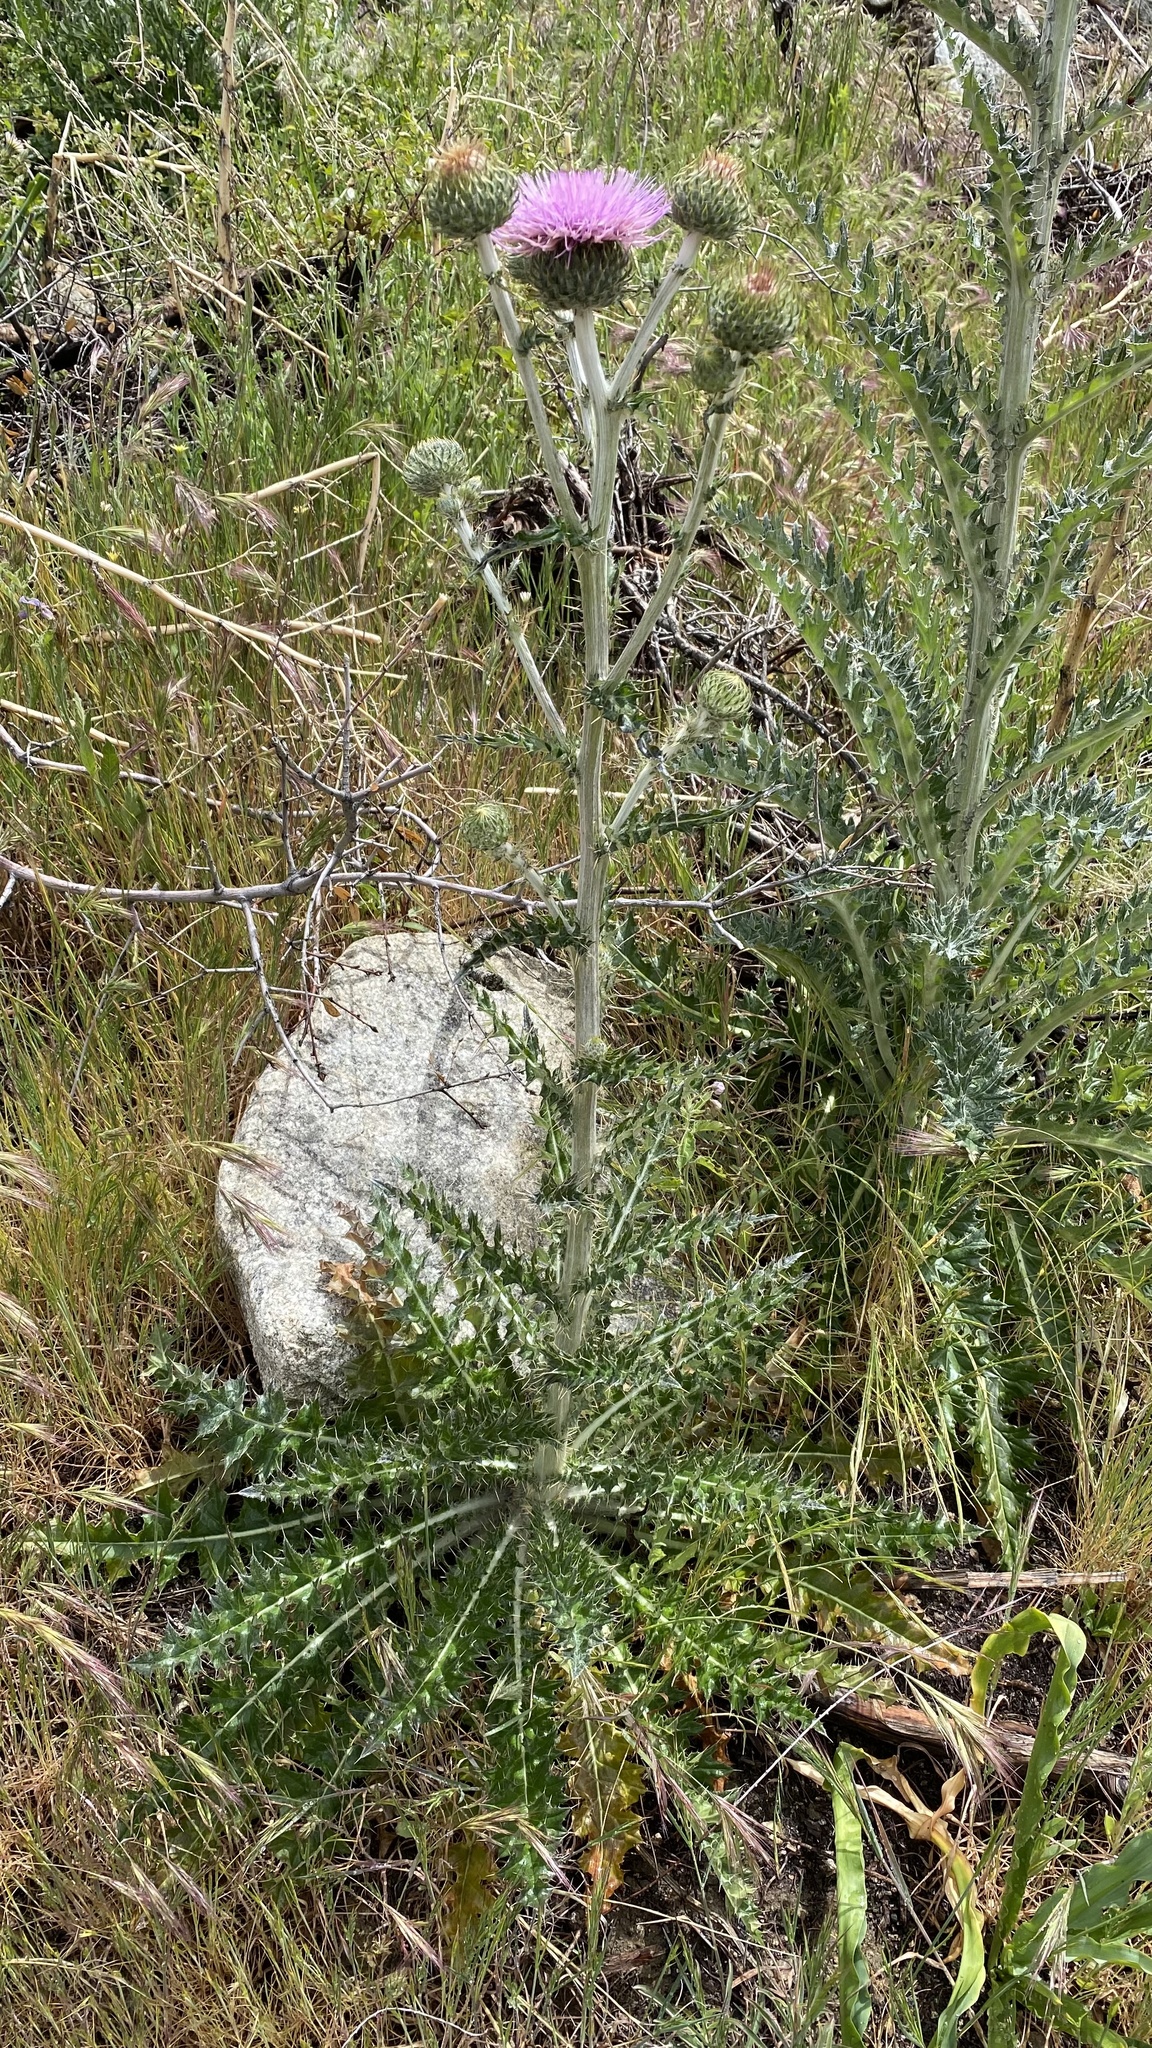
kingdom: Plantae
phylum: Tracheophyta
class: Magnoliopsida
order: Asterales
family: Asteraceae
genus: Cirsium
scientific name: Cirsium occidentale
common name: Western thistle
